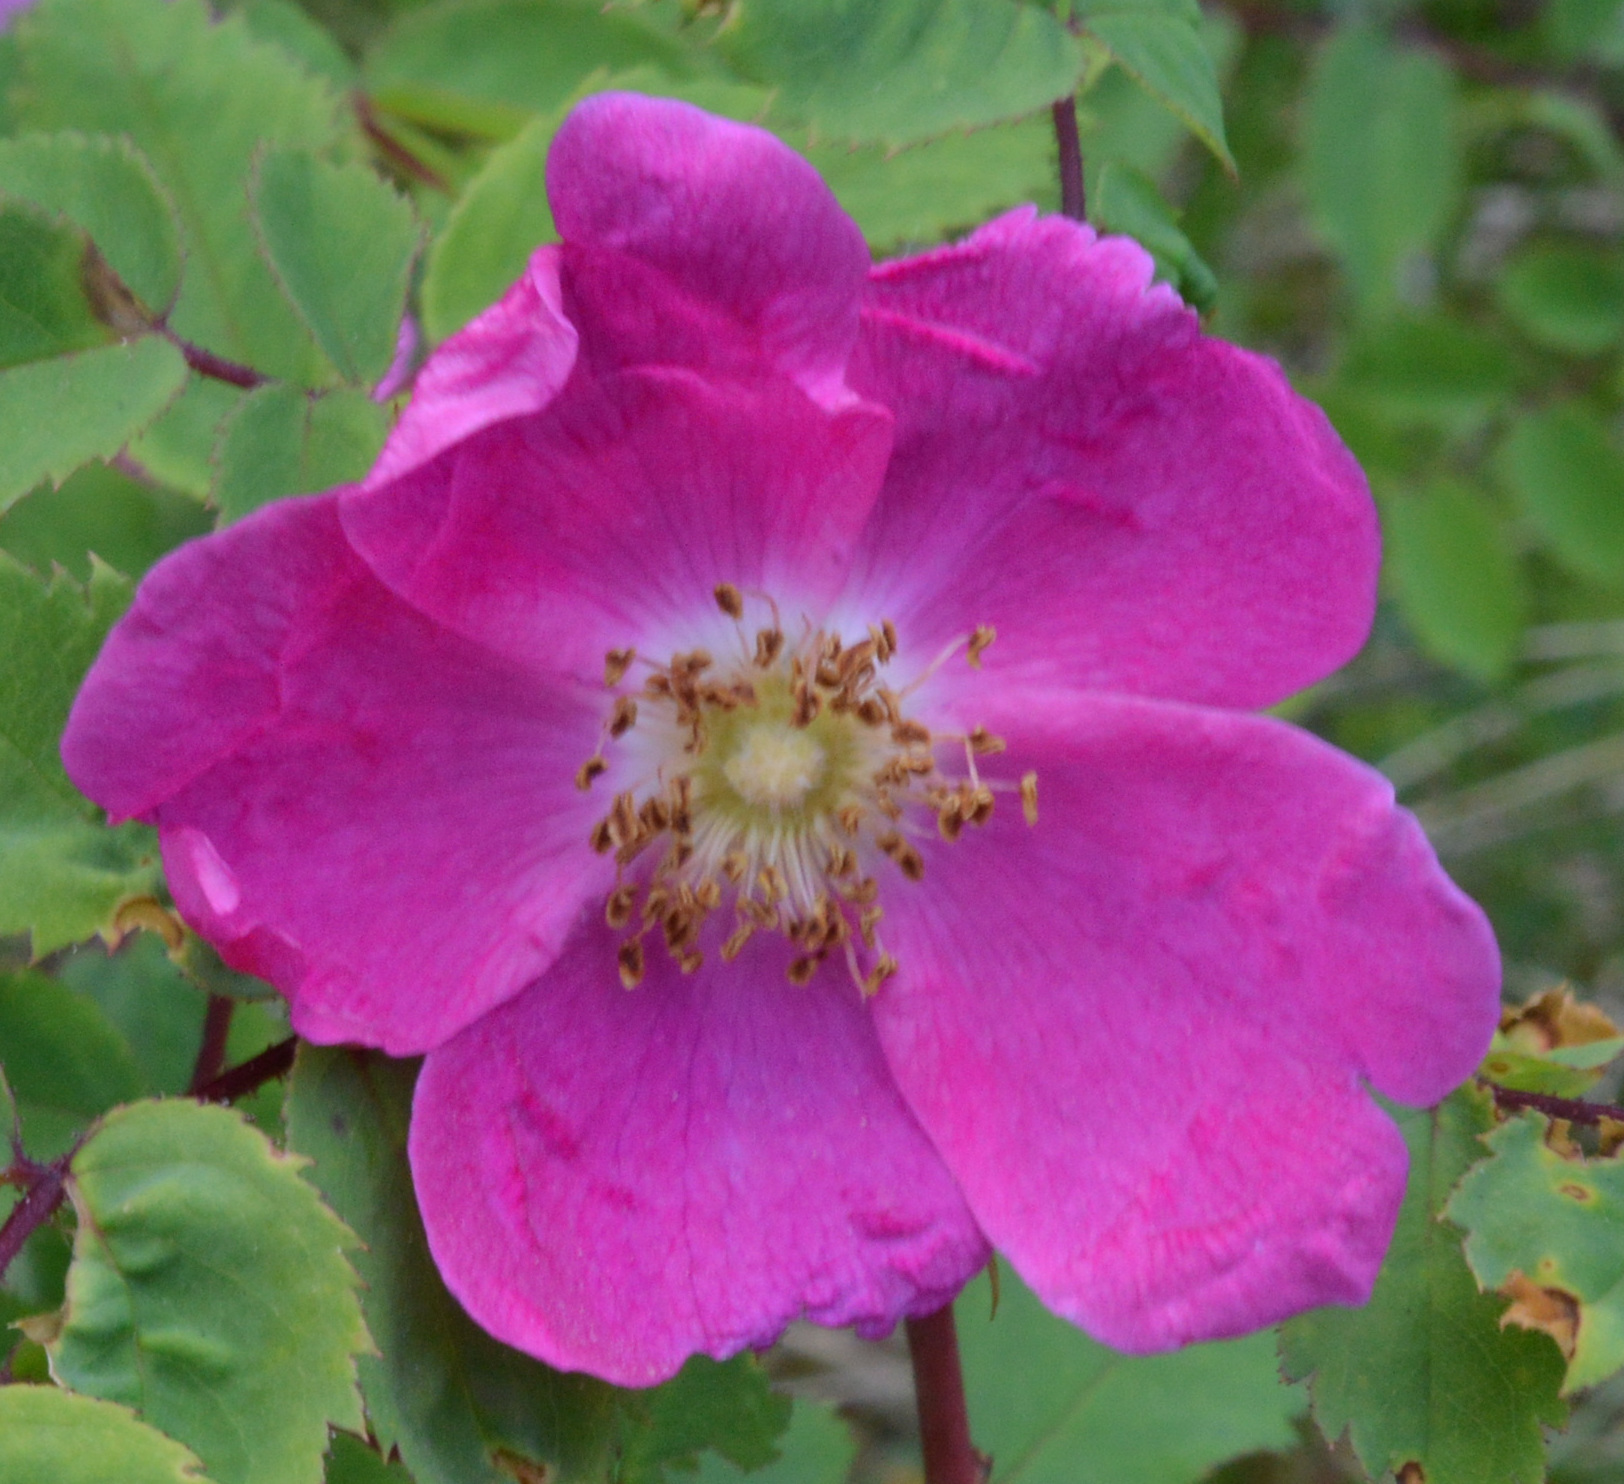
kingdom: Plantae
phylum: Tracheophyta
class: Magnoliopsida
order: Rosales
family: Rosaceae
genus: Rosa
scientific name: Rosa pendulina
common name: Alpine rose
